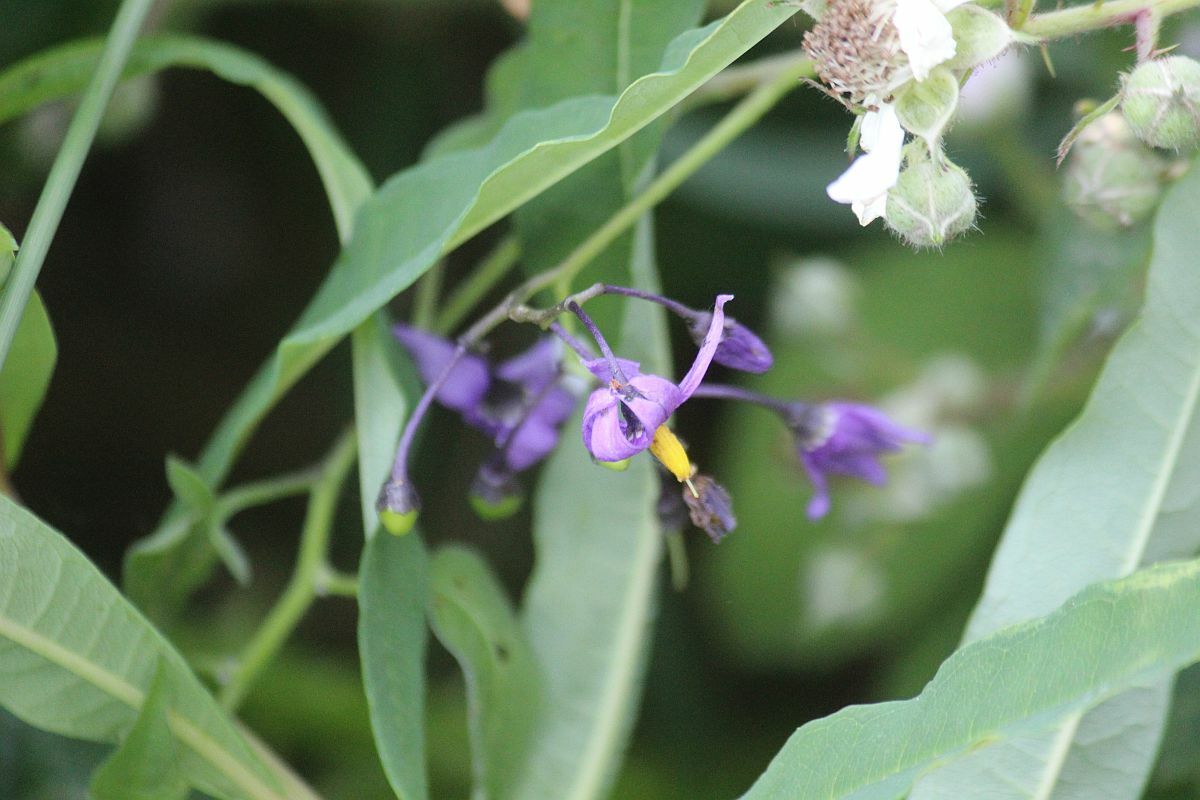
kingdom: Plantae
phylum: Tracheophyta
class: Magnoliopsida
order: Solanales
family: Solanaceae
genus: Solanum
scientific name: Solanum dulcamara
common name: Climbing nightshade
